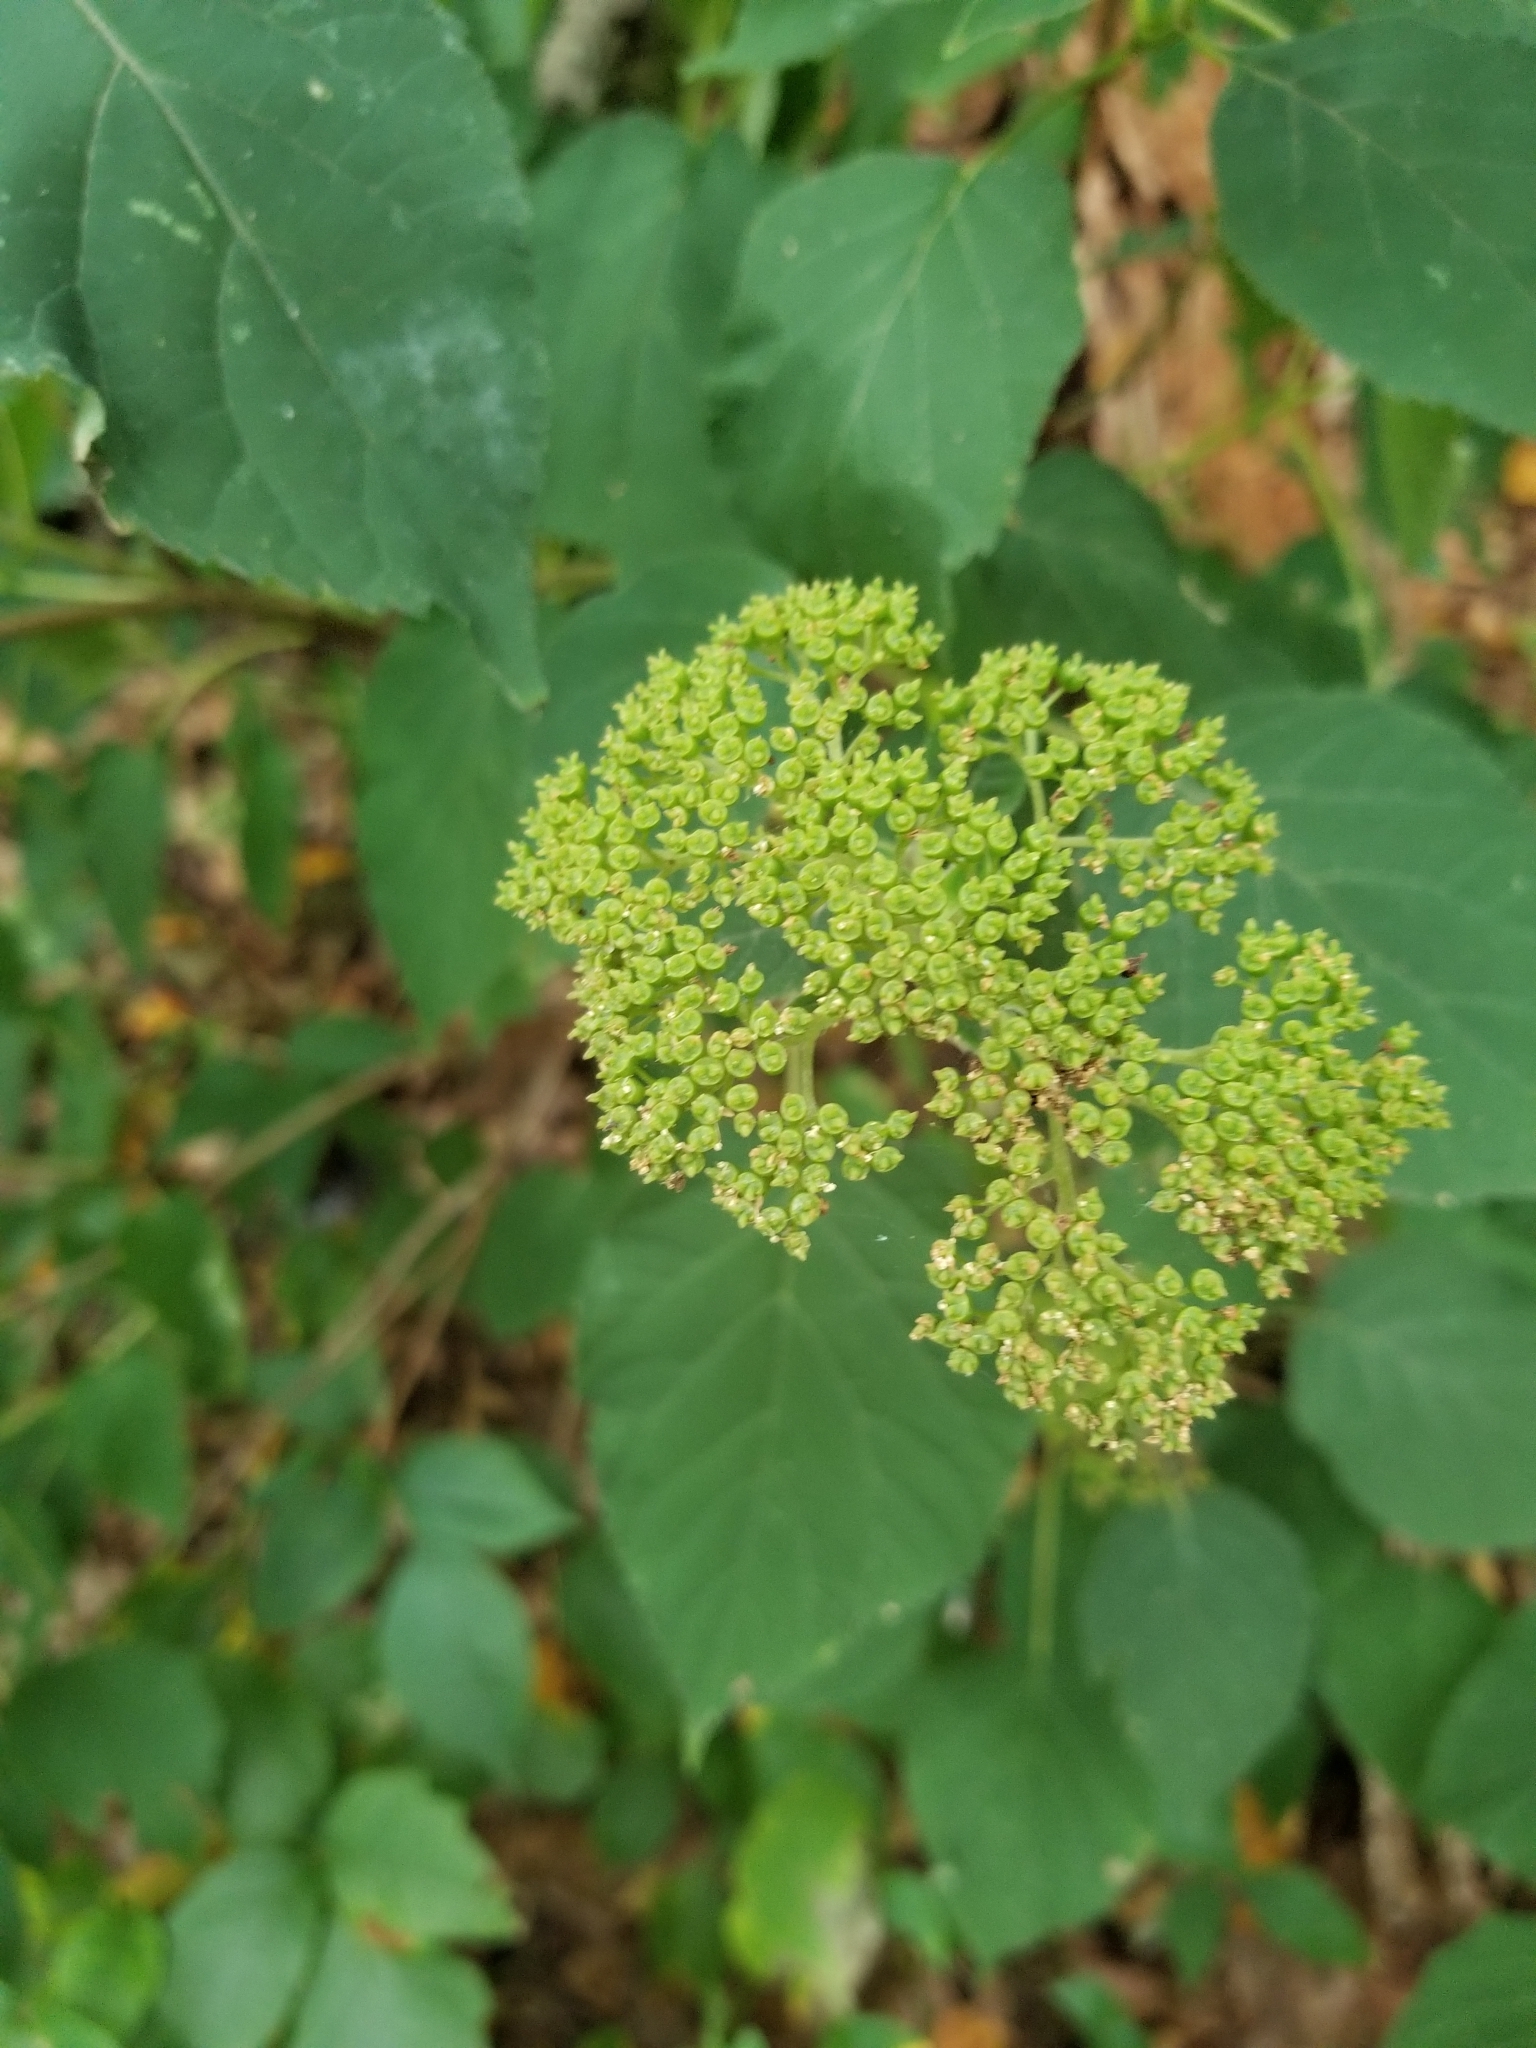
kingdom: Plantae
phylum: Tracheophyta
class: Magnoliopsida
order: Cornales
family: Hydrangeaceae
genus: Hydrangea
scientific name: Hydrangea arborescens
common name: Sevenbark
